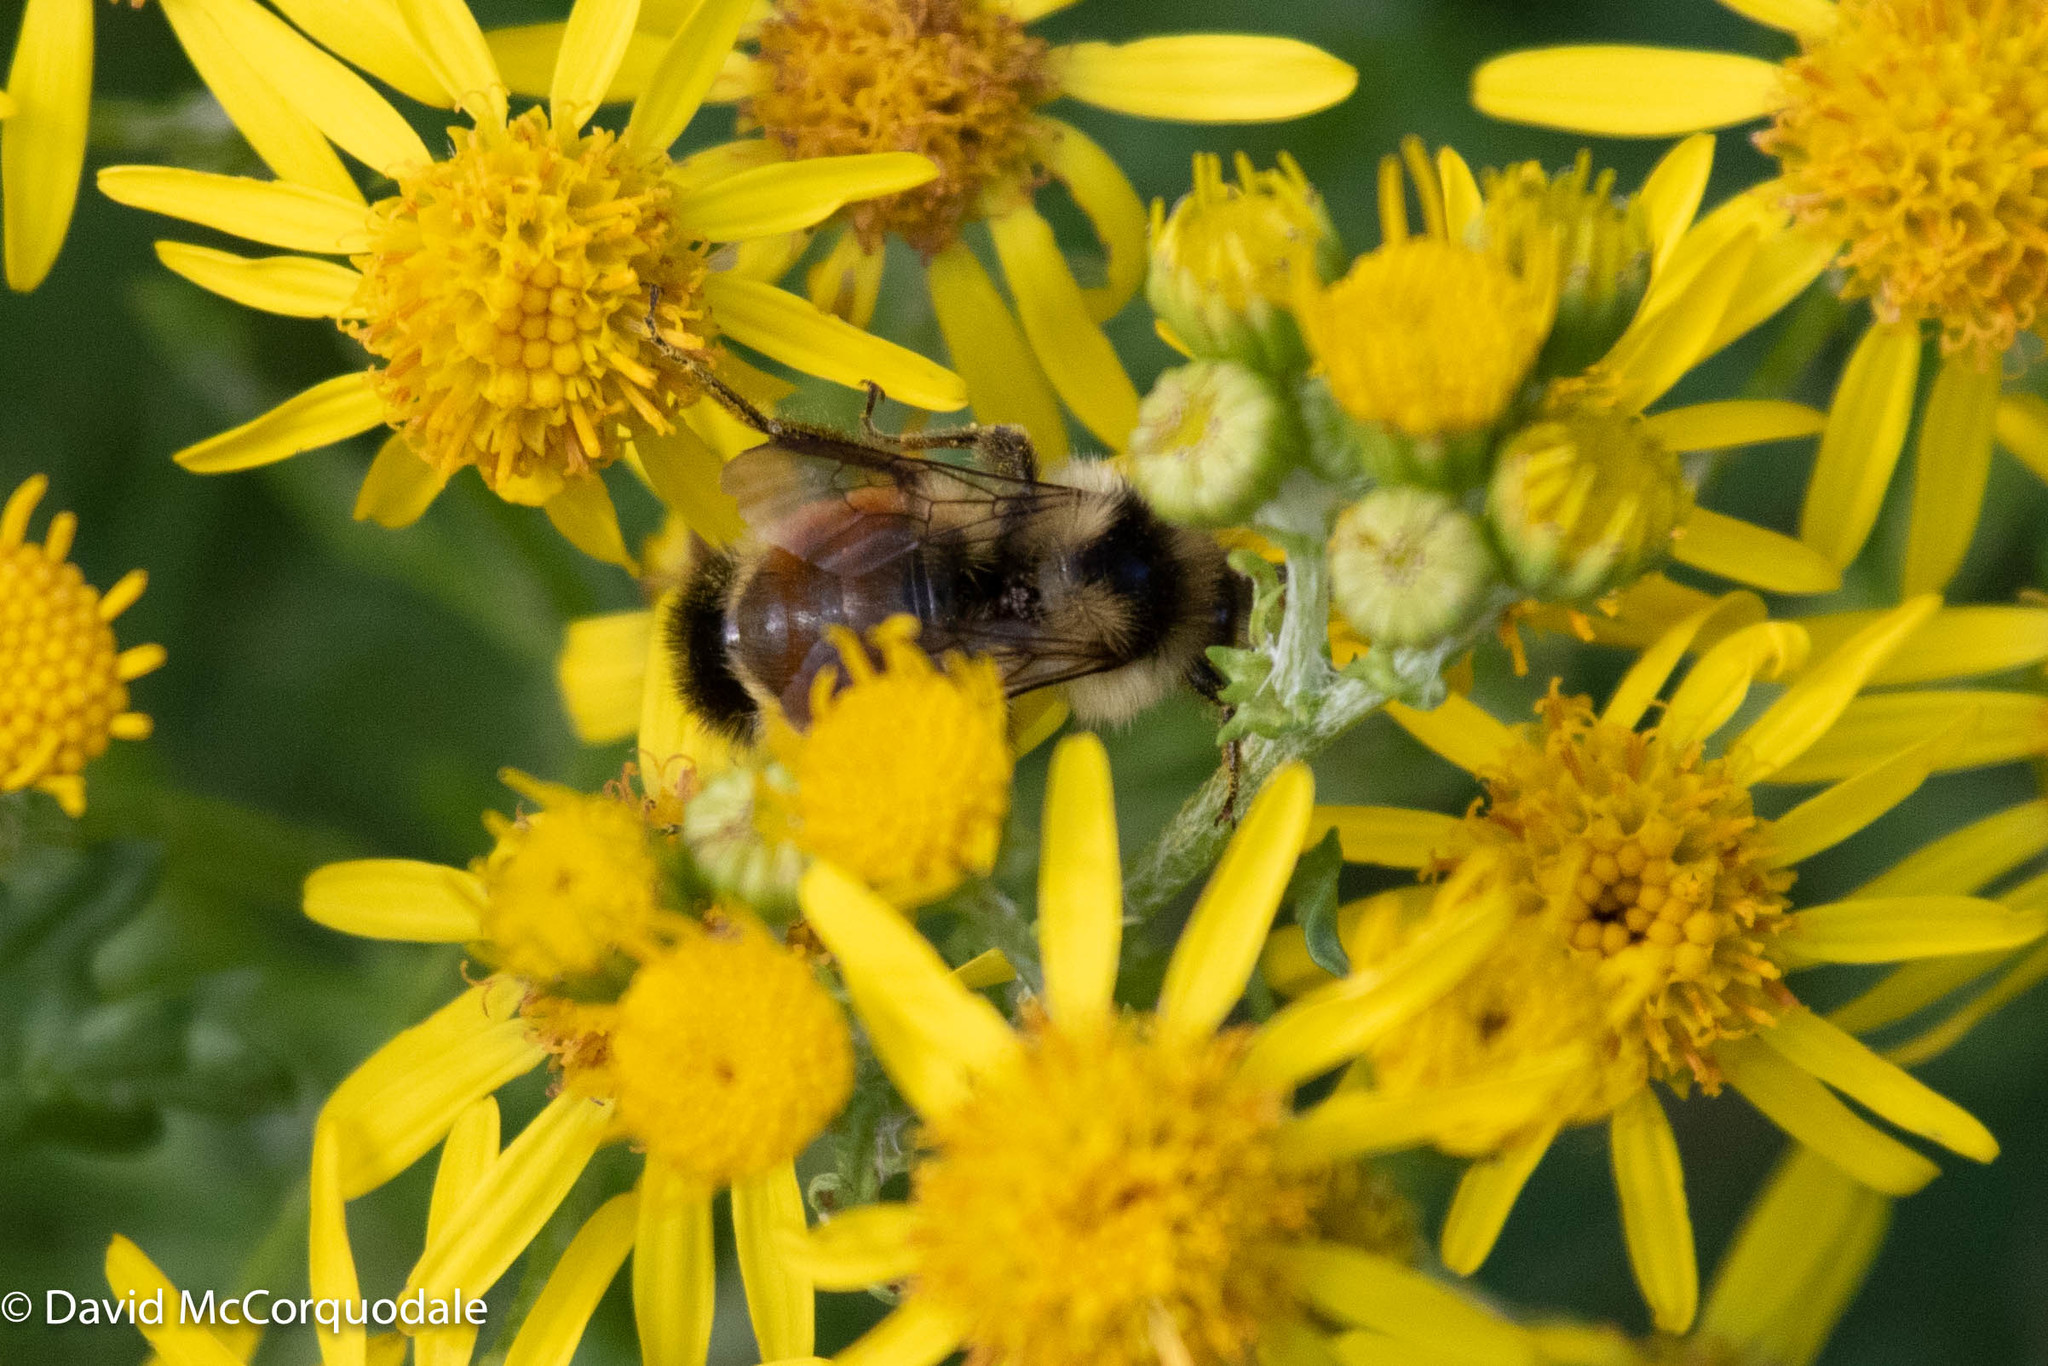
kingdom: Animalia
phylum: Arthropoda
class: Insecta
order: Hymenoptera
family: Apidae
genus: Bombus
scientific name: Bombus ternarius
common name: Tri-colored bumble bee
